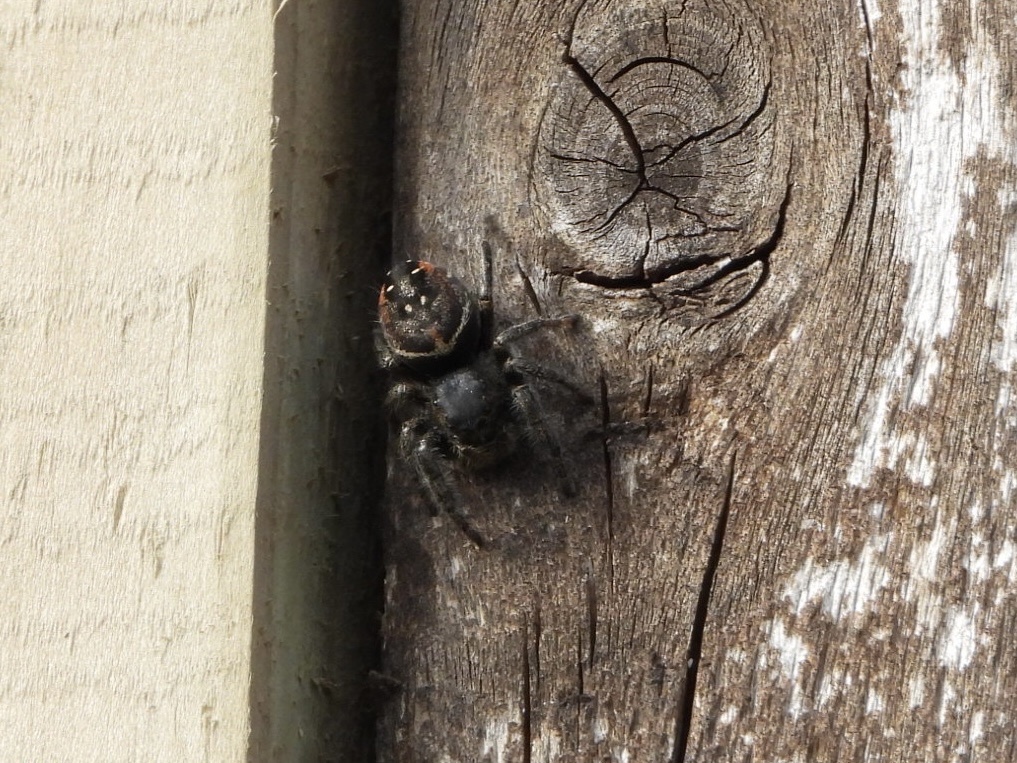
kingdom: Animalia
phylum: Arthropoda
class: Arachnida
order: Araneae
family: Salticidae
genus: Phidippus
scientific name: Phidippus johnsoni
